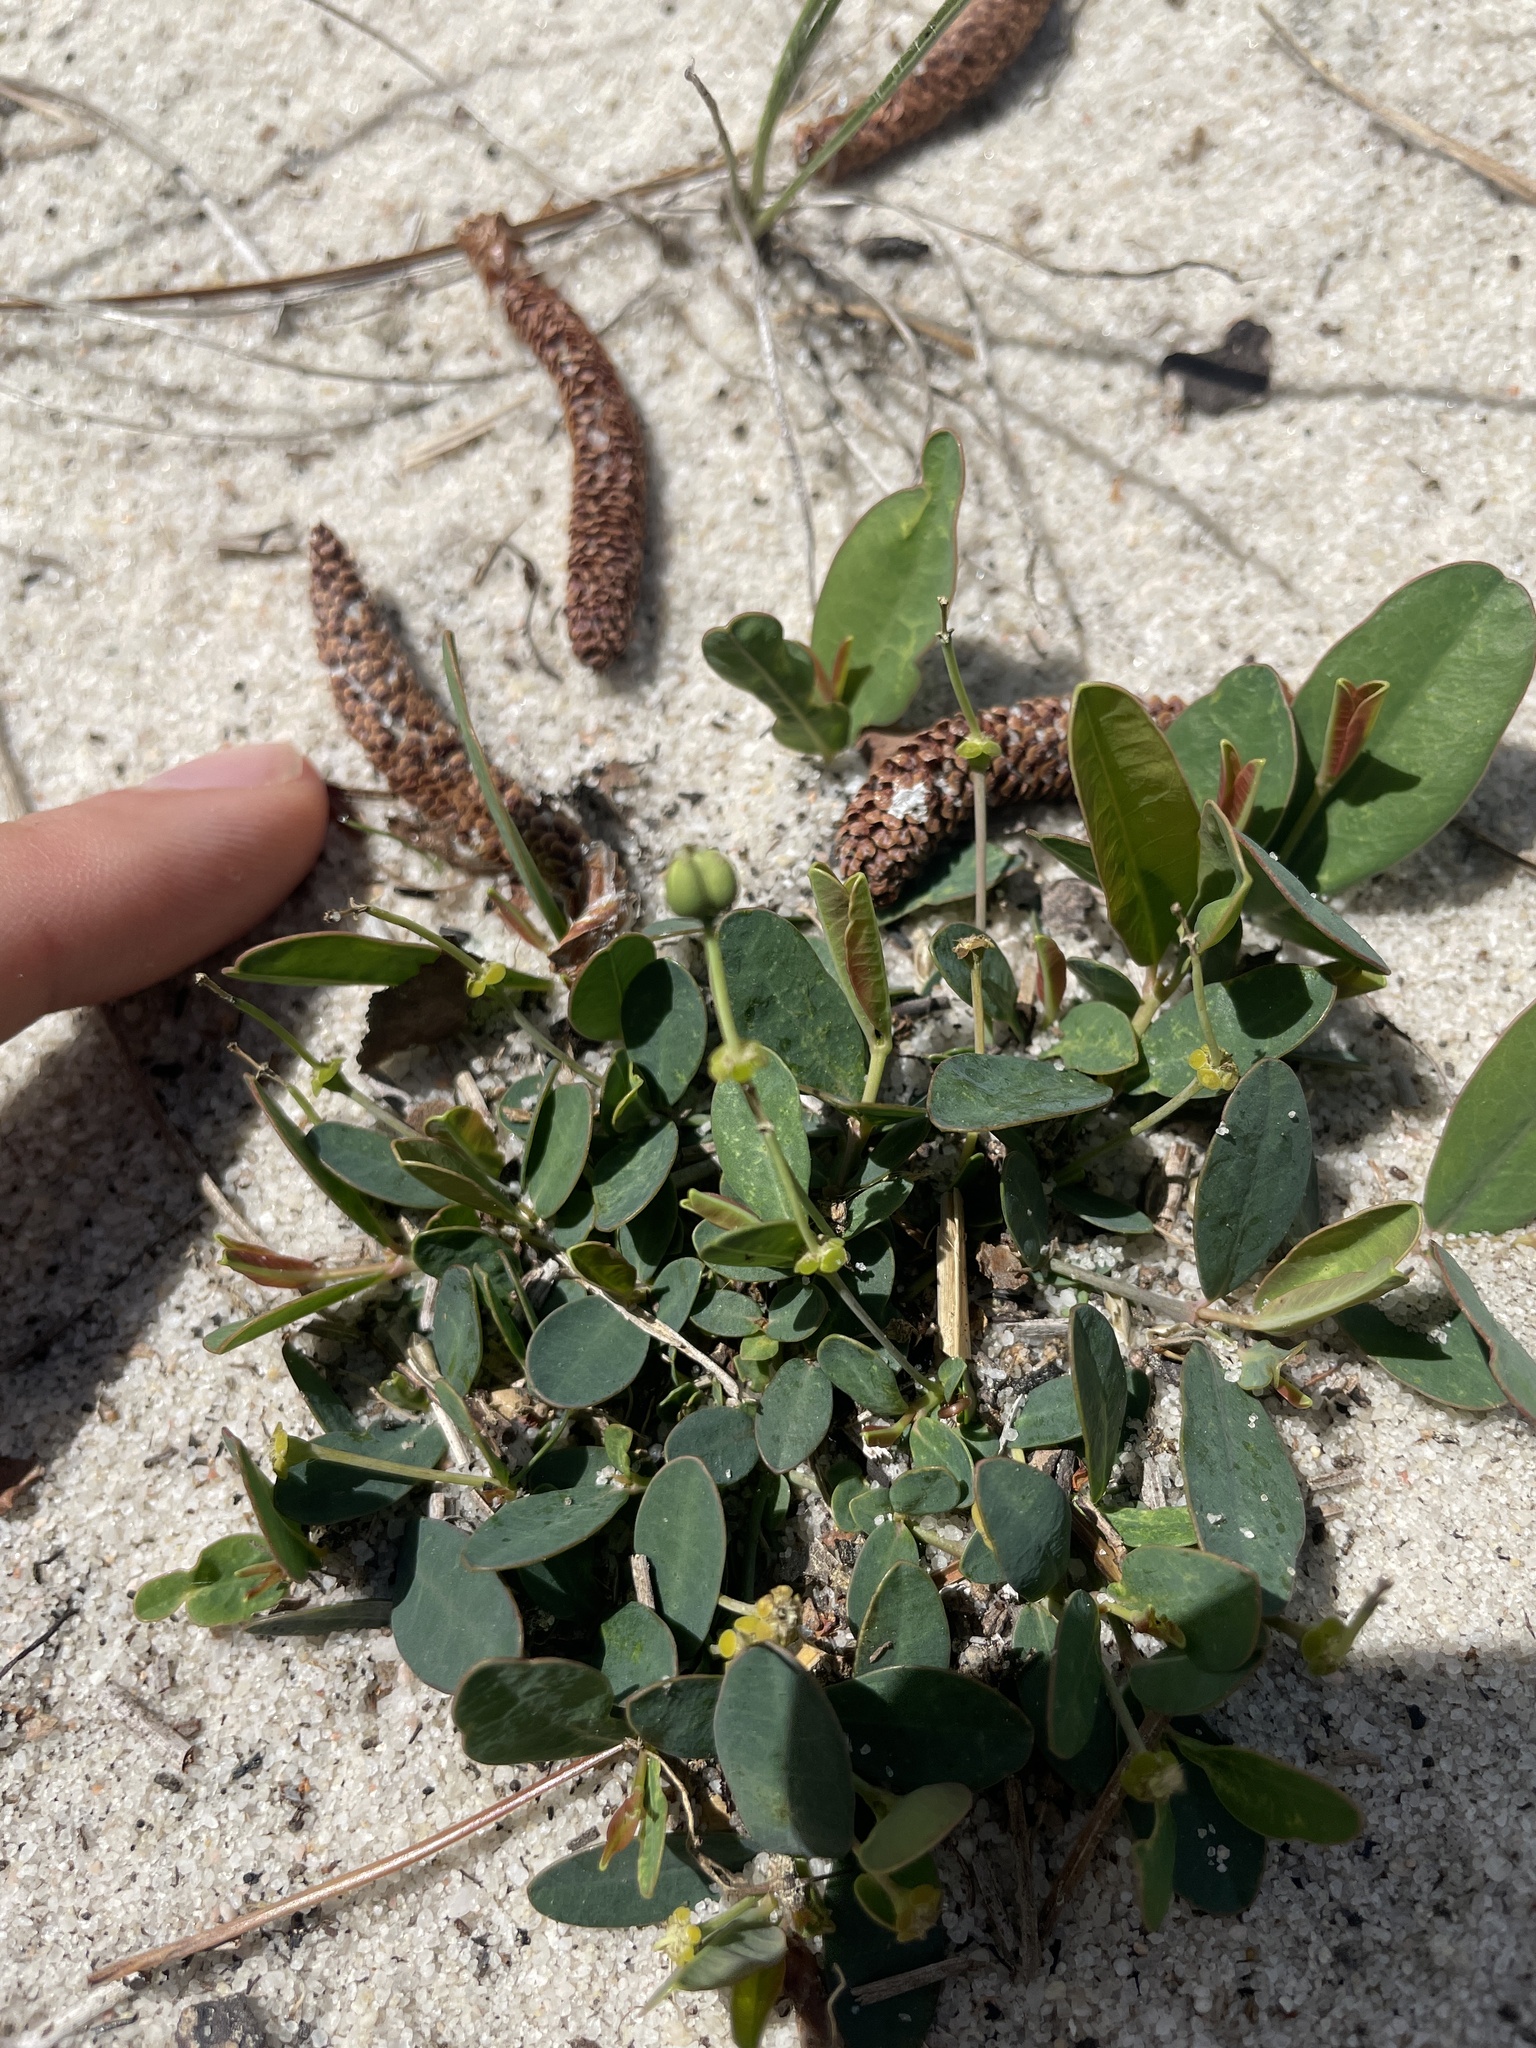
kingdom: Plantae
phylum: Tracheophyta
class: Magnoliopsida
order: Malpighiales
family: Euphorbiaceae
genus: Euphorbia
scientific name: Euphorbia ipecacuanhae
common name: Carolina ipecac
